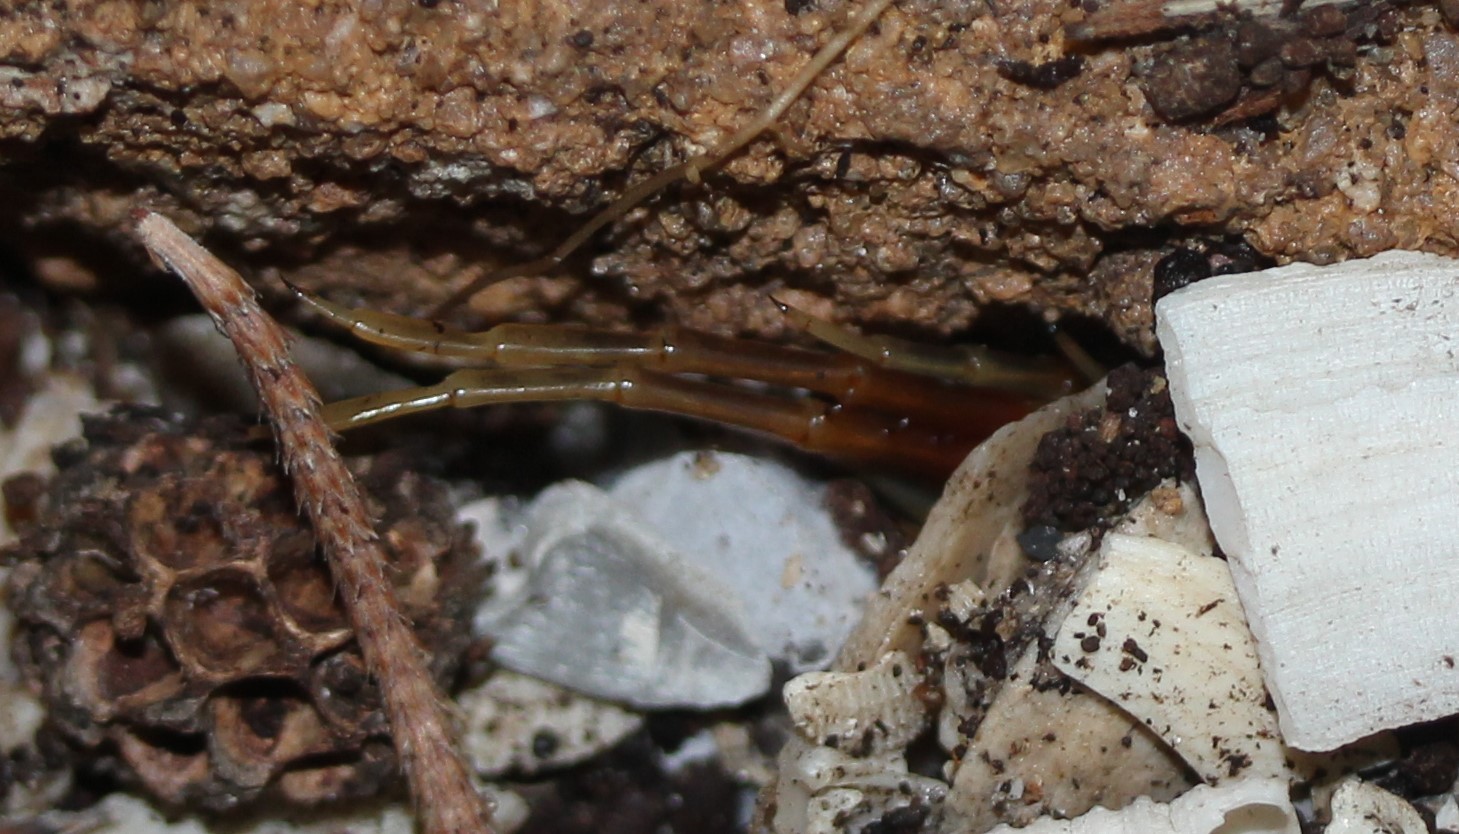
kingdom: Animalia
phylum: Arthropoda
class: Chilopoda
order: Scolopendromorpha
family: Scolopendridae
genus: Rhysida
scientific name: Rhysida longipes
